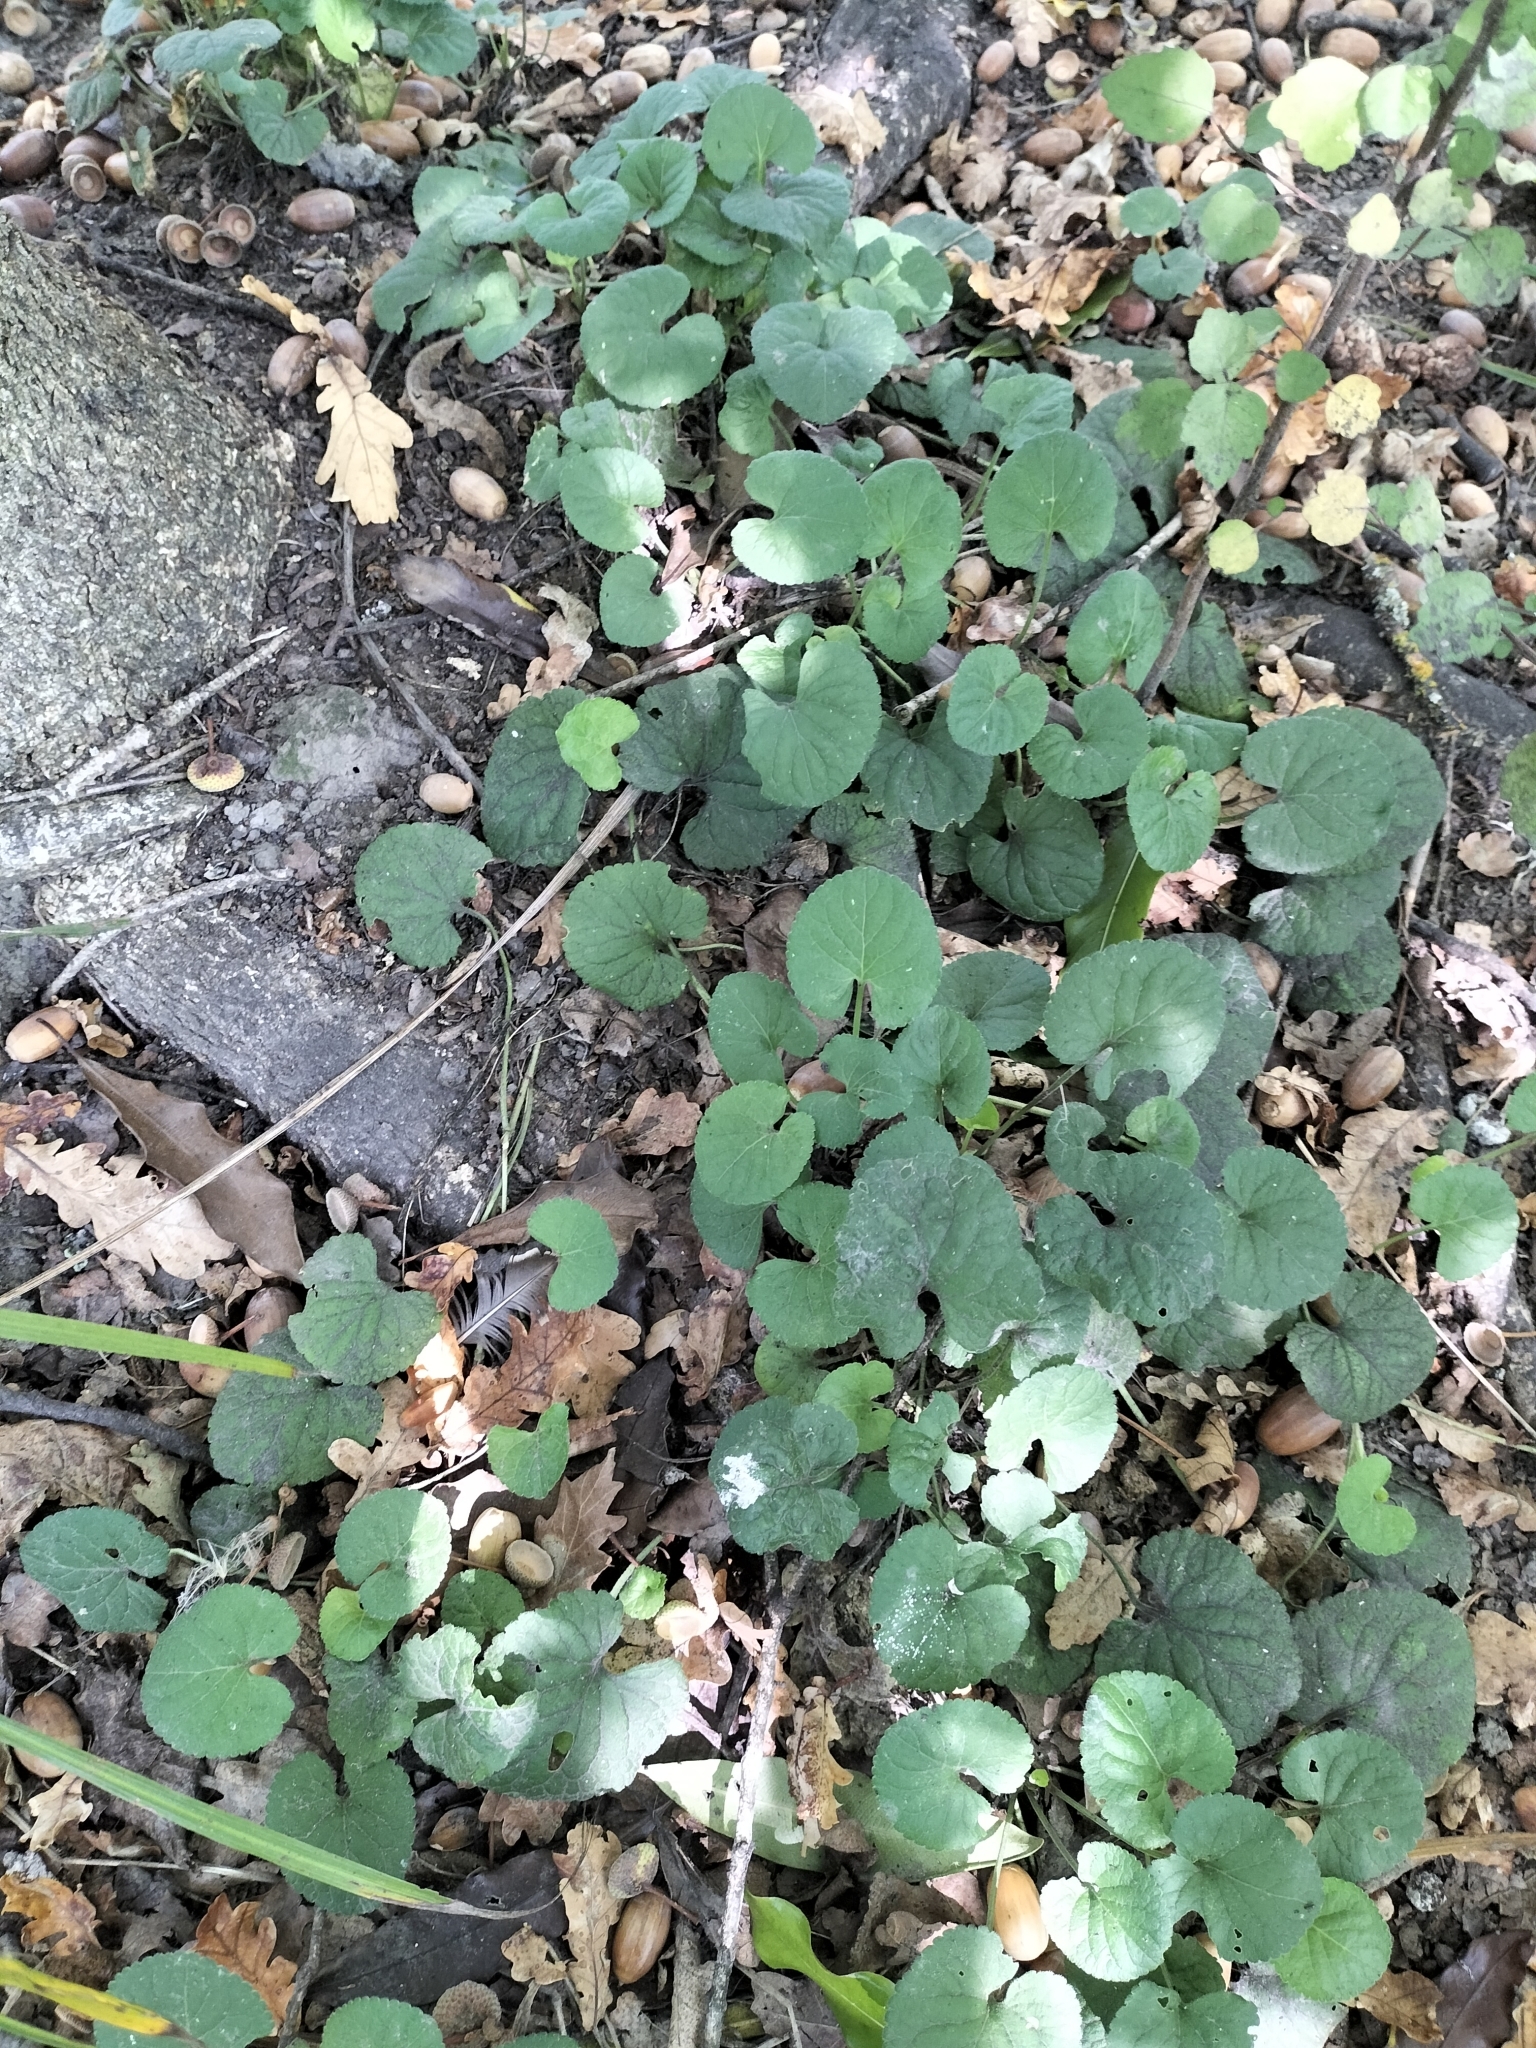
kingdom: Plantae
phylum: Tracheophyta
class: Magnoliopsida
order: Malpighiales
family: Violaceae
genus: Viola
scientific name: Viola odorata
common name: Sweet violet
